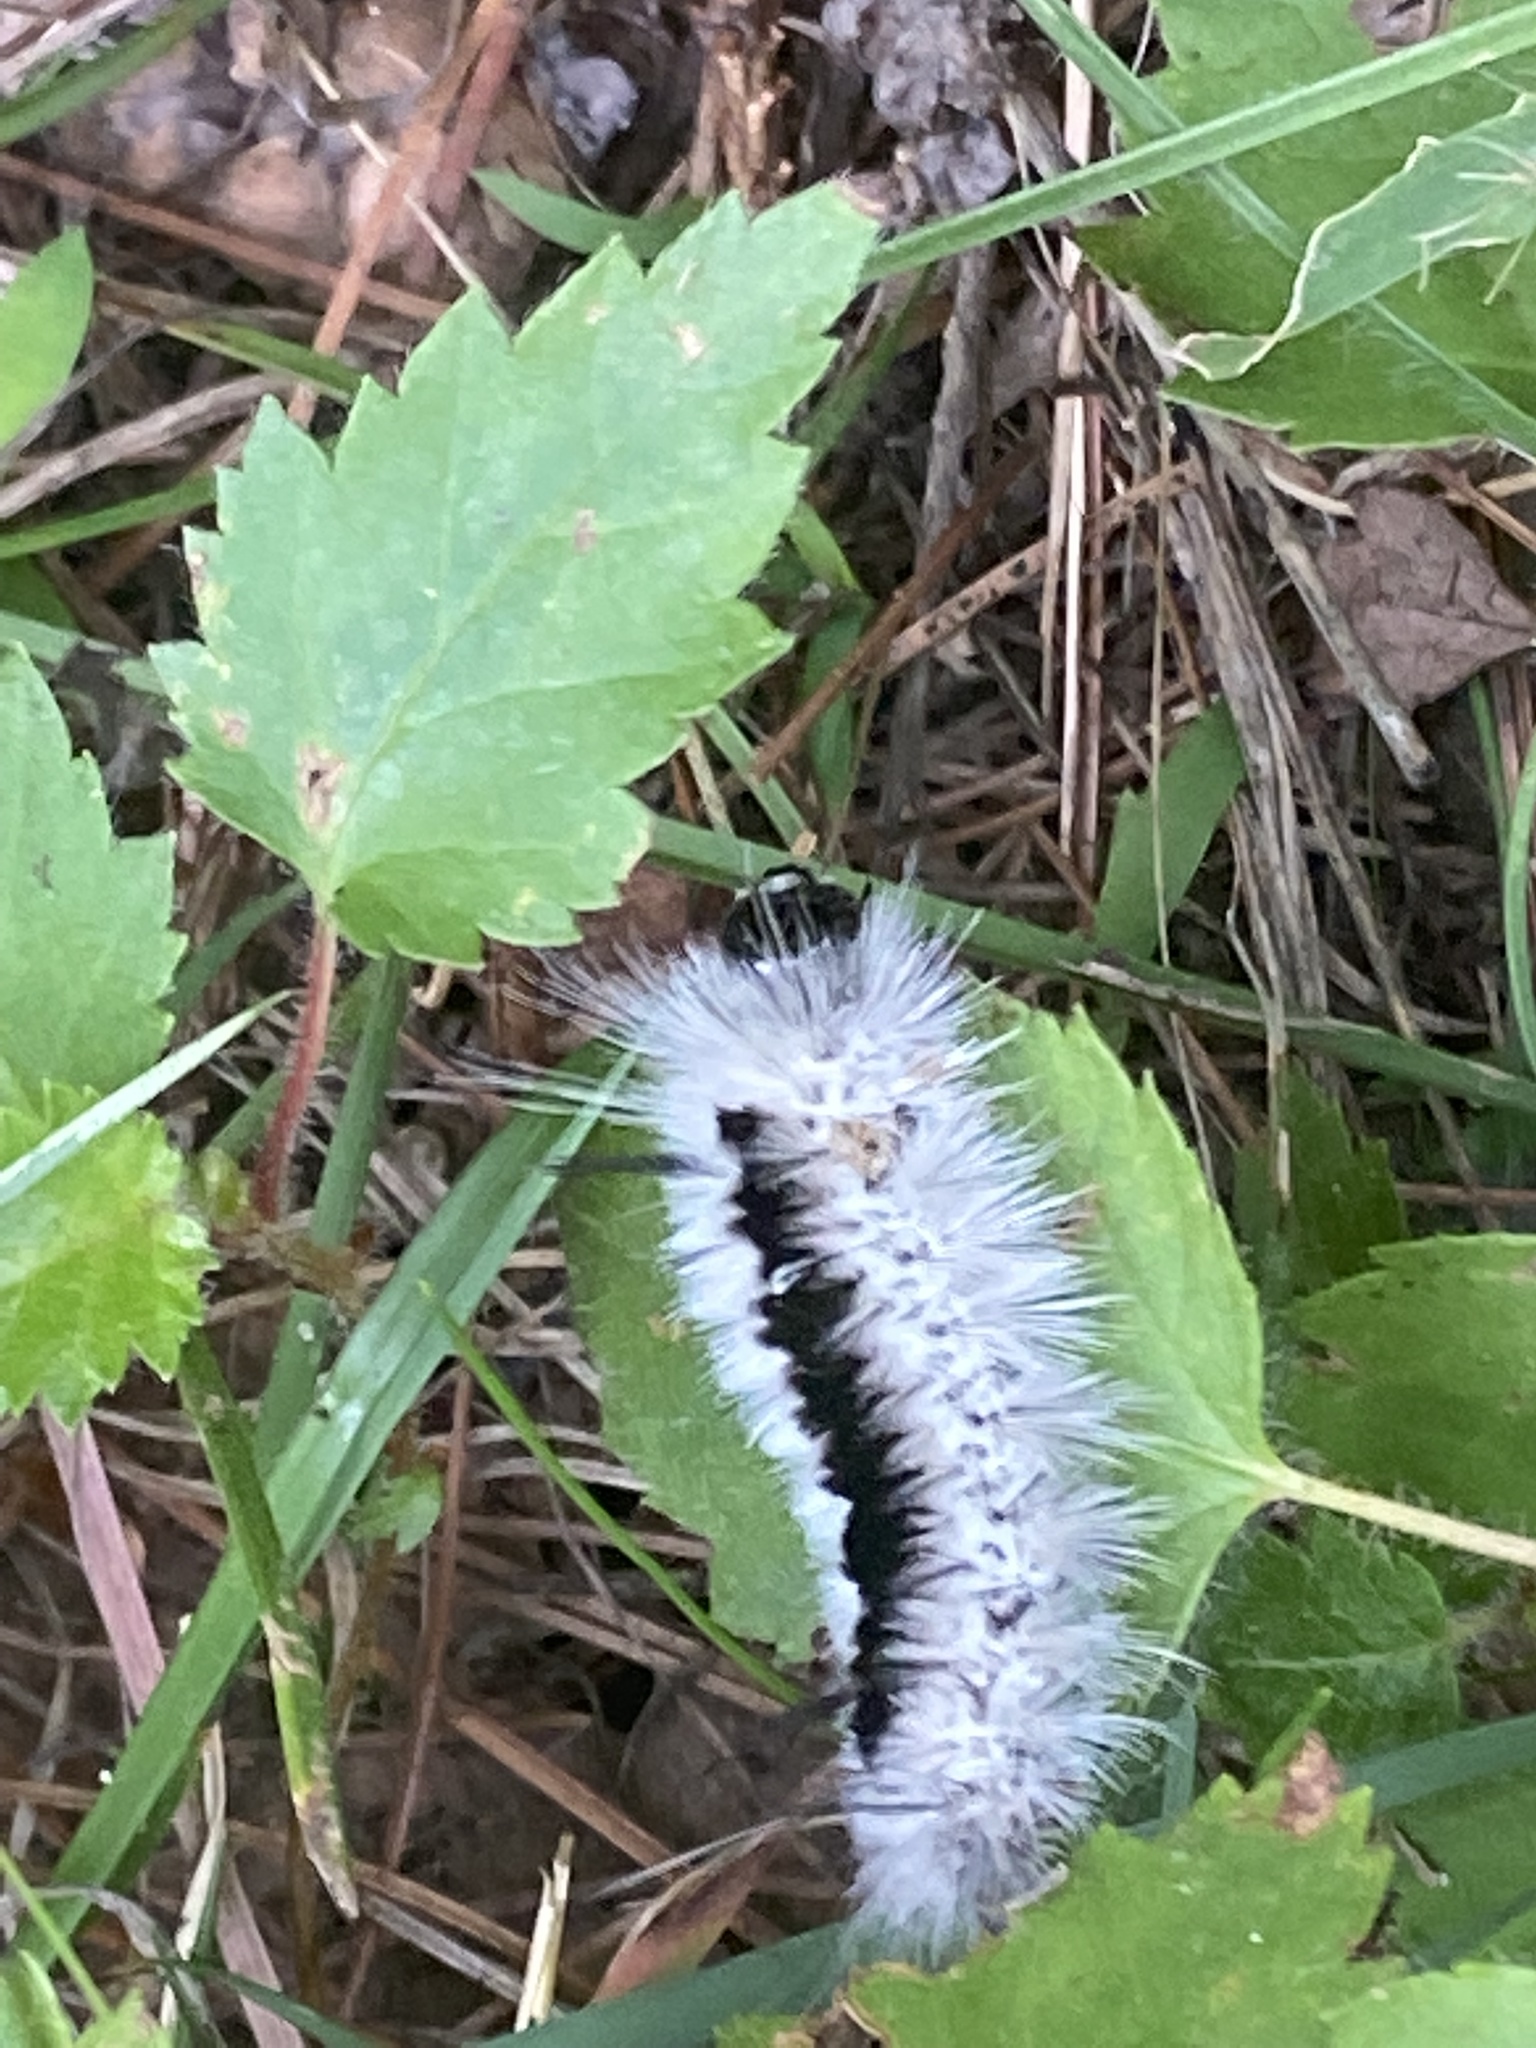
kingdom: Animalia
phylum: Arthropoda
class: Insecta
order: Lepidoptera
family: Erebidae
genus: Lophocampa
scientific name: Lophocampa caryae
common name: Hickory tussock moth
